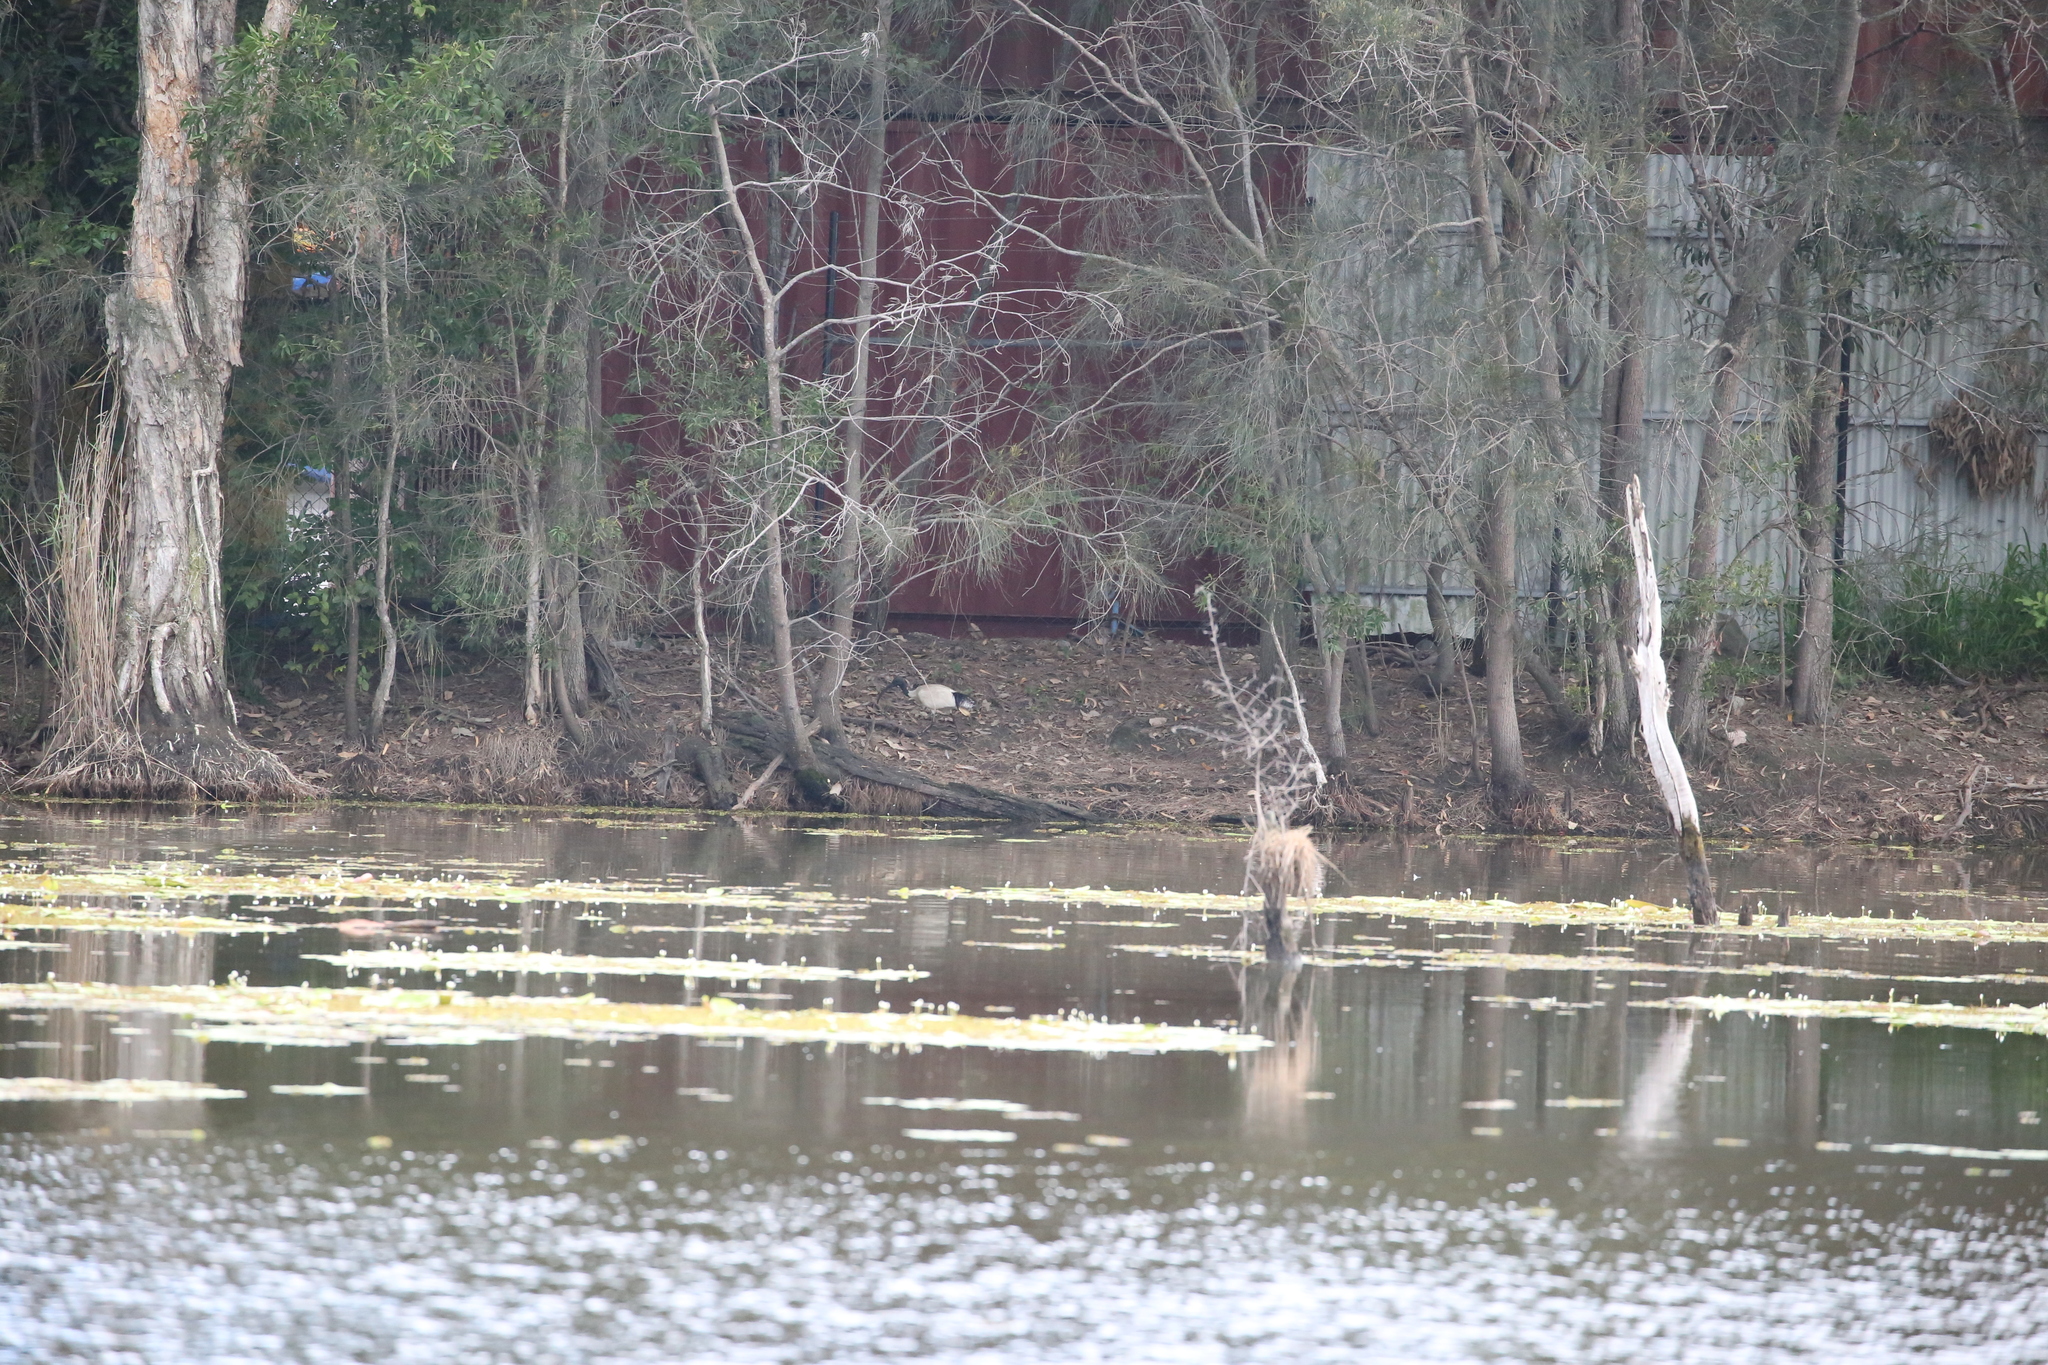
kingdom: Animalia
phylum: Chordata
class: Aves
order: Pelecaniformes
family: Threskiornithidae
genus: Threskiornis
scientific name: Threskiornis molucca
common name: Australian white ibis
